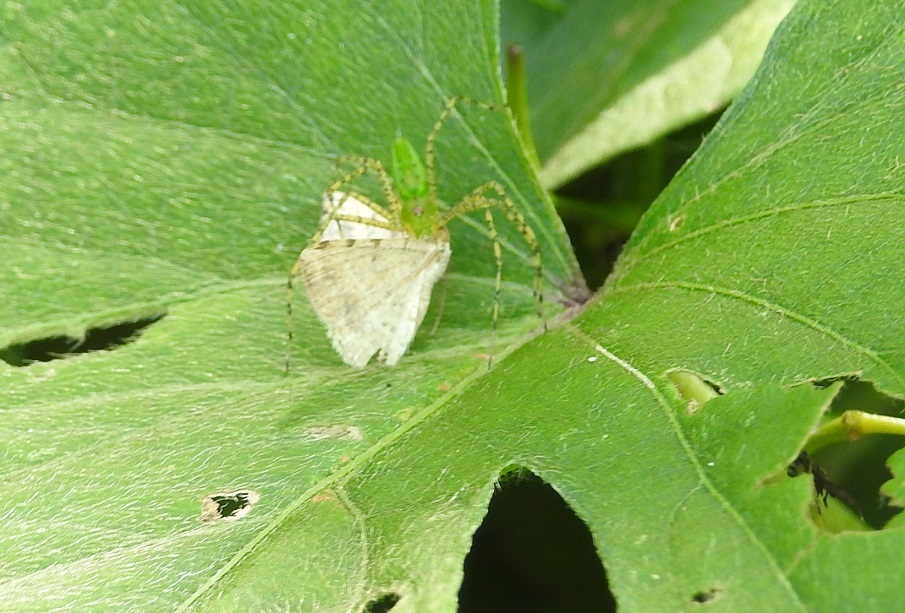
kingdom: Animalia
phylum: Arthropoda
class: Arachnida
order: Araneae
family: Oxyopidae
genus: Peucetia
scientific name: Peucetia viridans
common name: Lynx spiders
